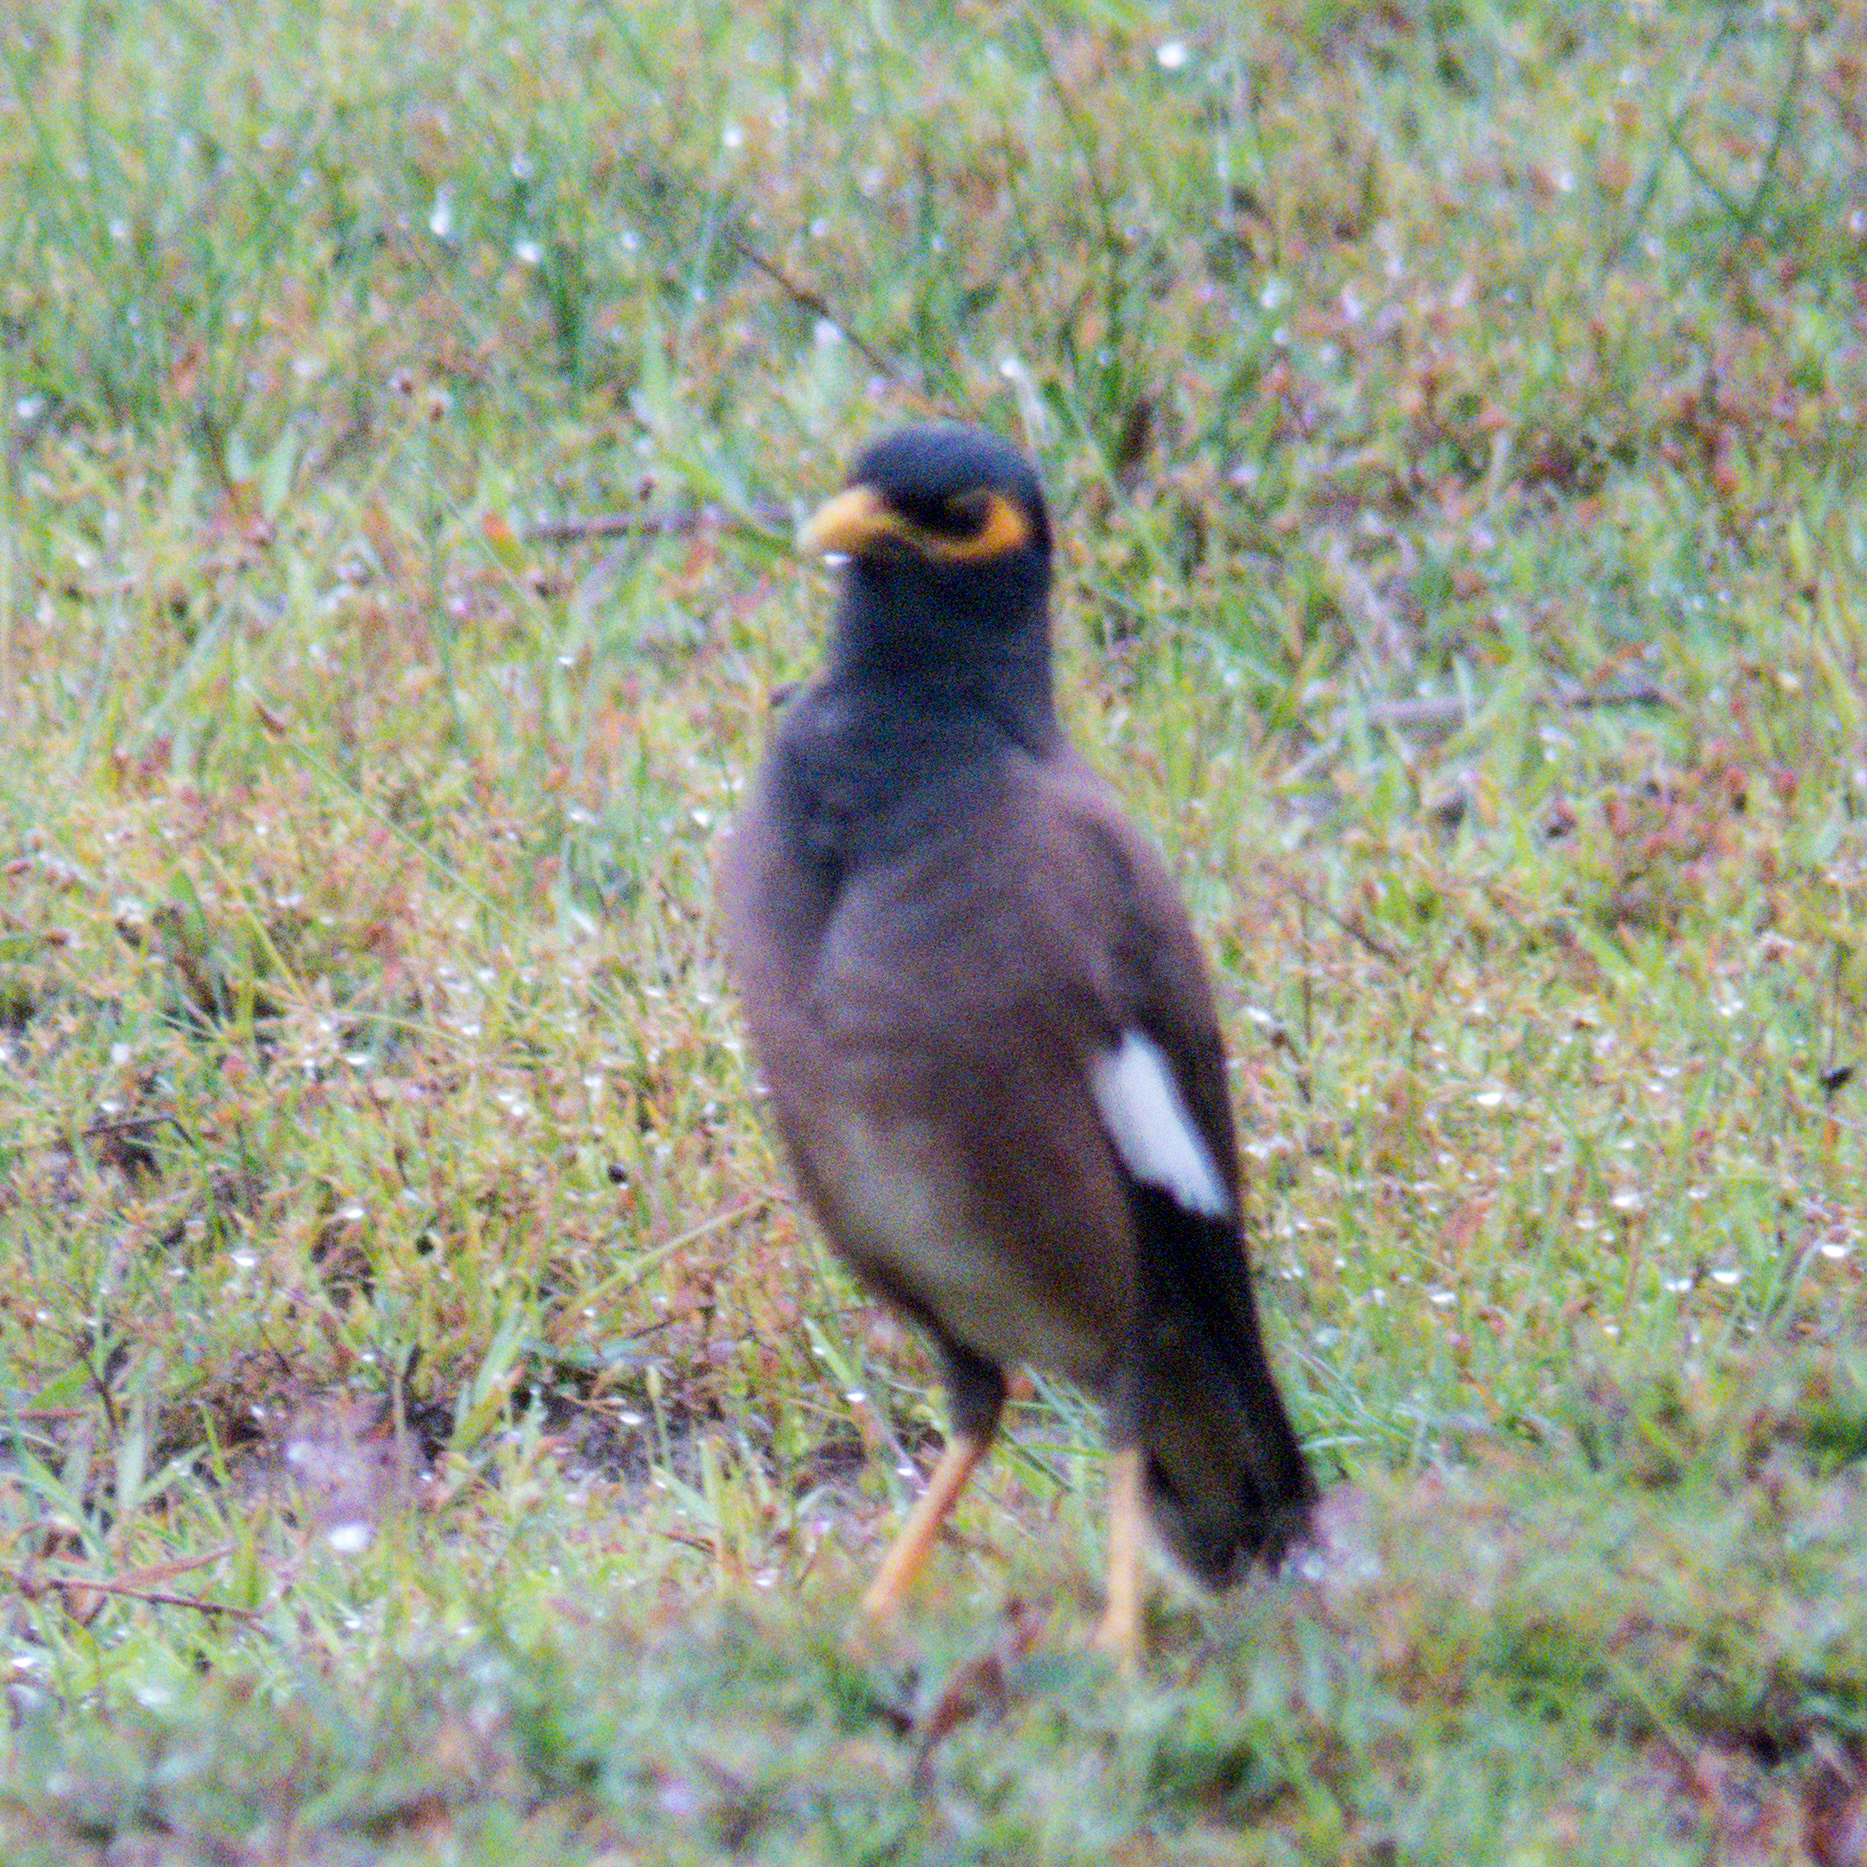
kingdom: Animalia
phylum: Chordata
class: Aves
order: Passeriformes
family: Sturnidae
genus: Acridotheres
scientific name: Acridotheres tristis
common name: Common myna
